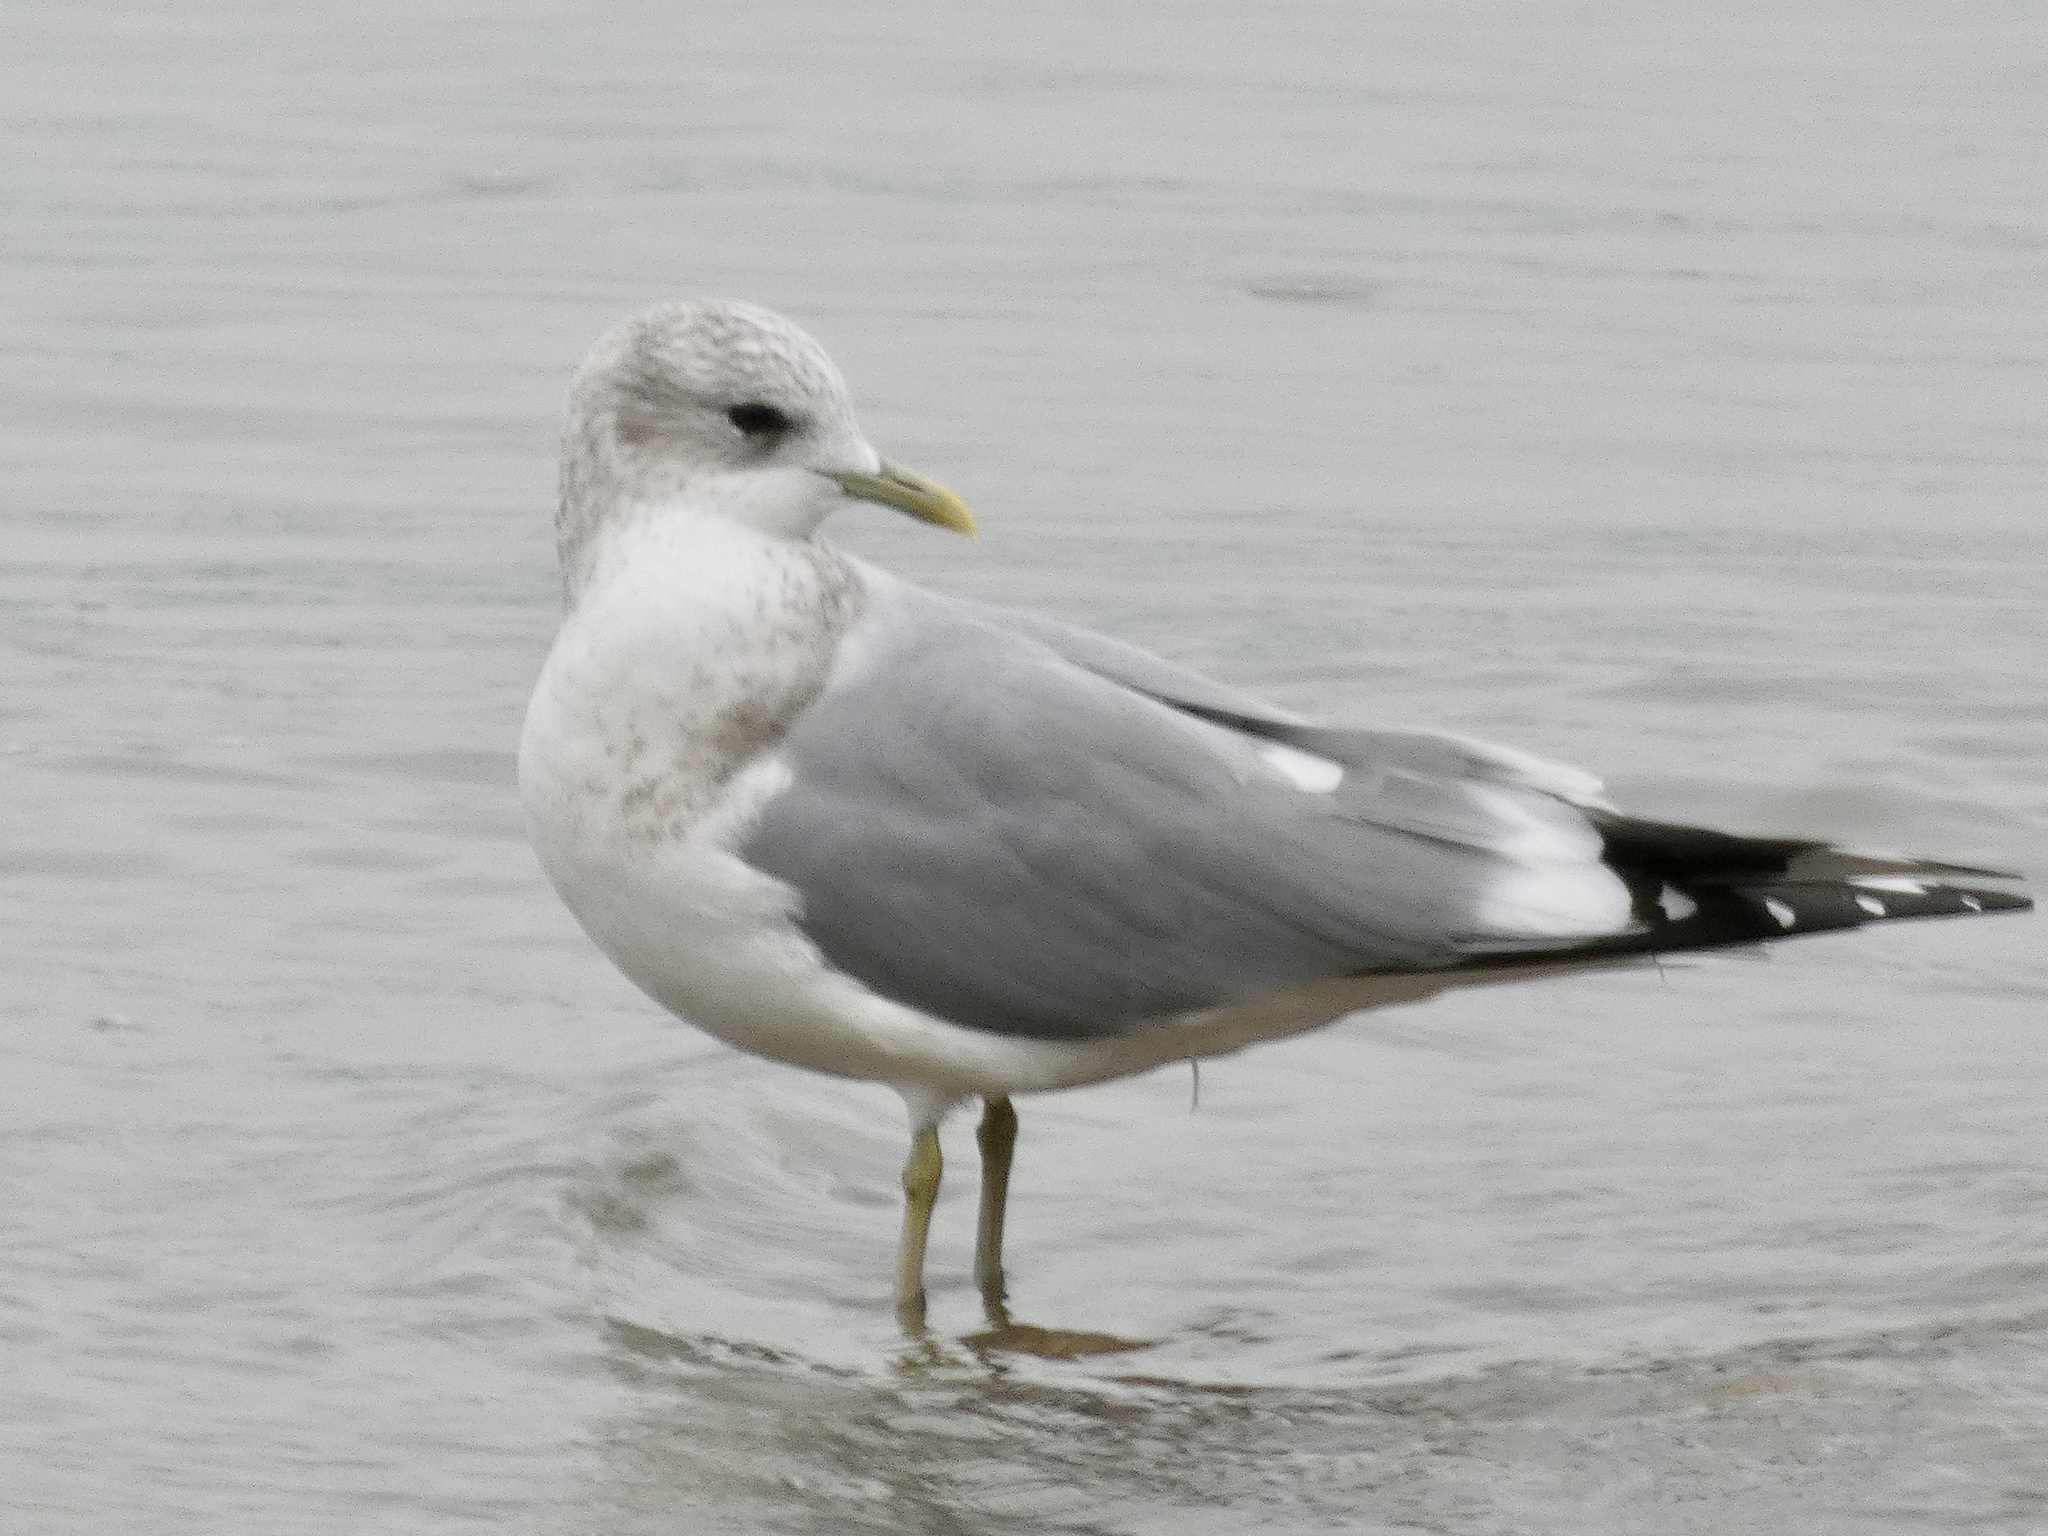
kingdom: Animalia
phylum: Chordata
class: Aves
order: Charadriiformes
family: Laridae
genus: Larus
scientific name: Larus brachyrhynchus
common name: Short-billed gull
